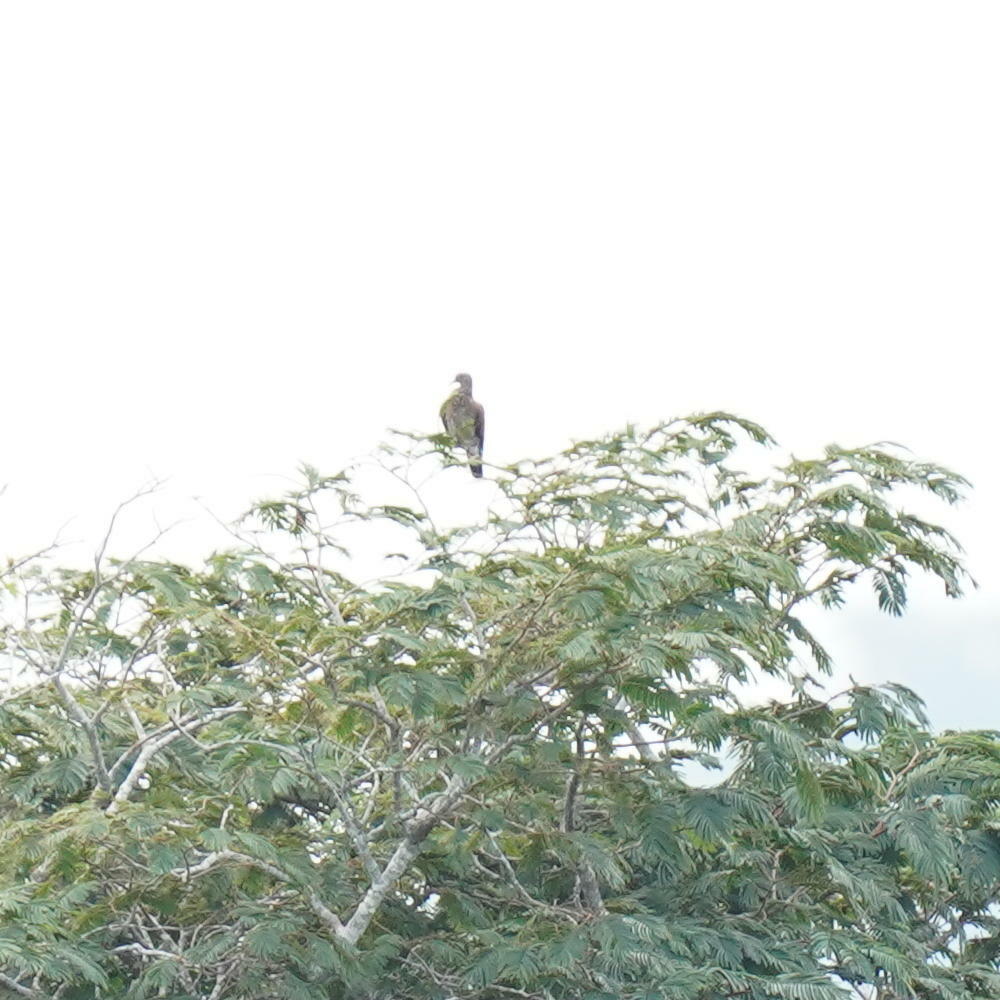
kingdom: Animalia
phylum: Chordata
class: Aves
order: Columbiformes
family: Columbidae
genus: Patagioenas
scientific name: Patagioenas speciosa
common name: Scaled pigeon
